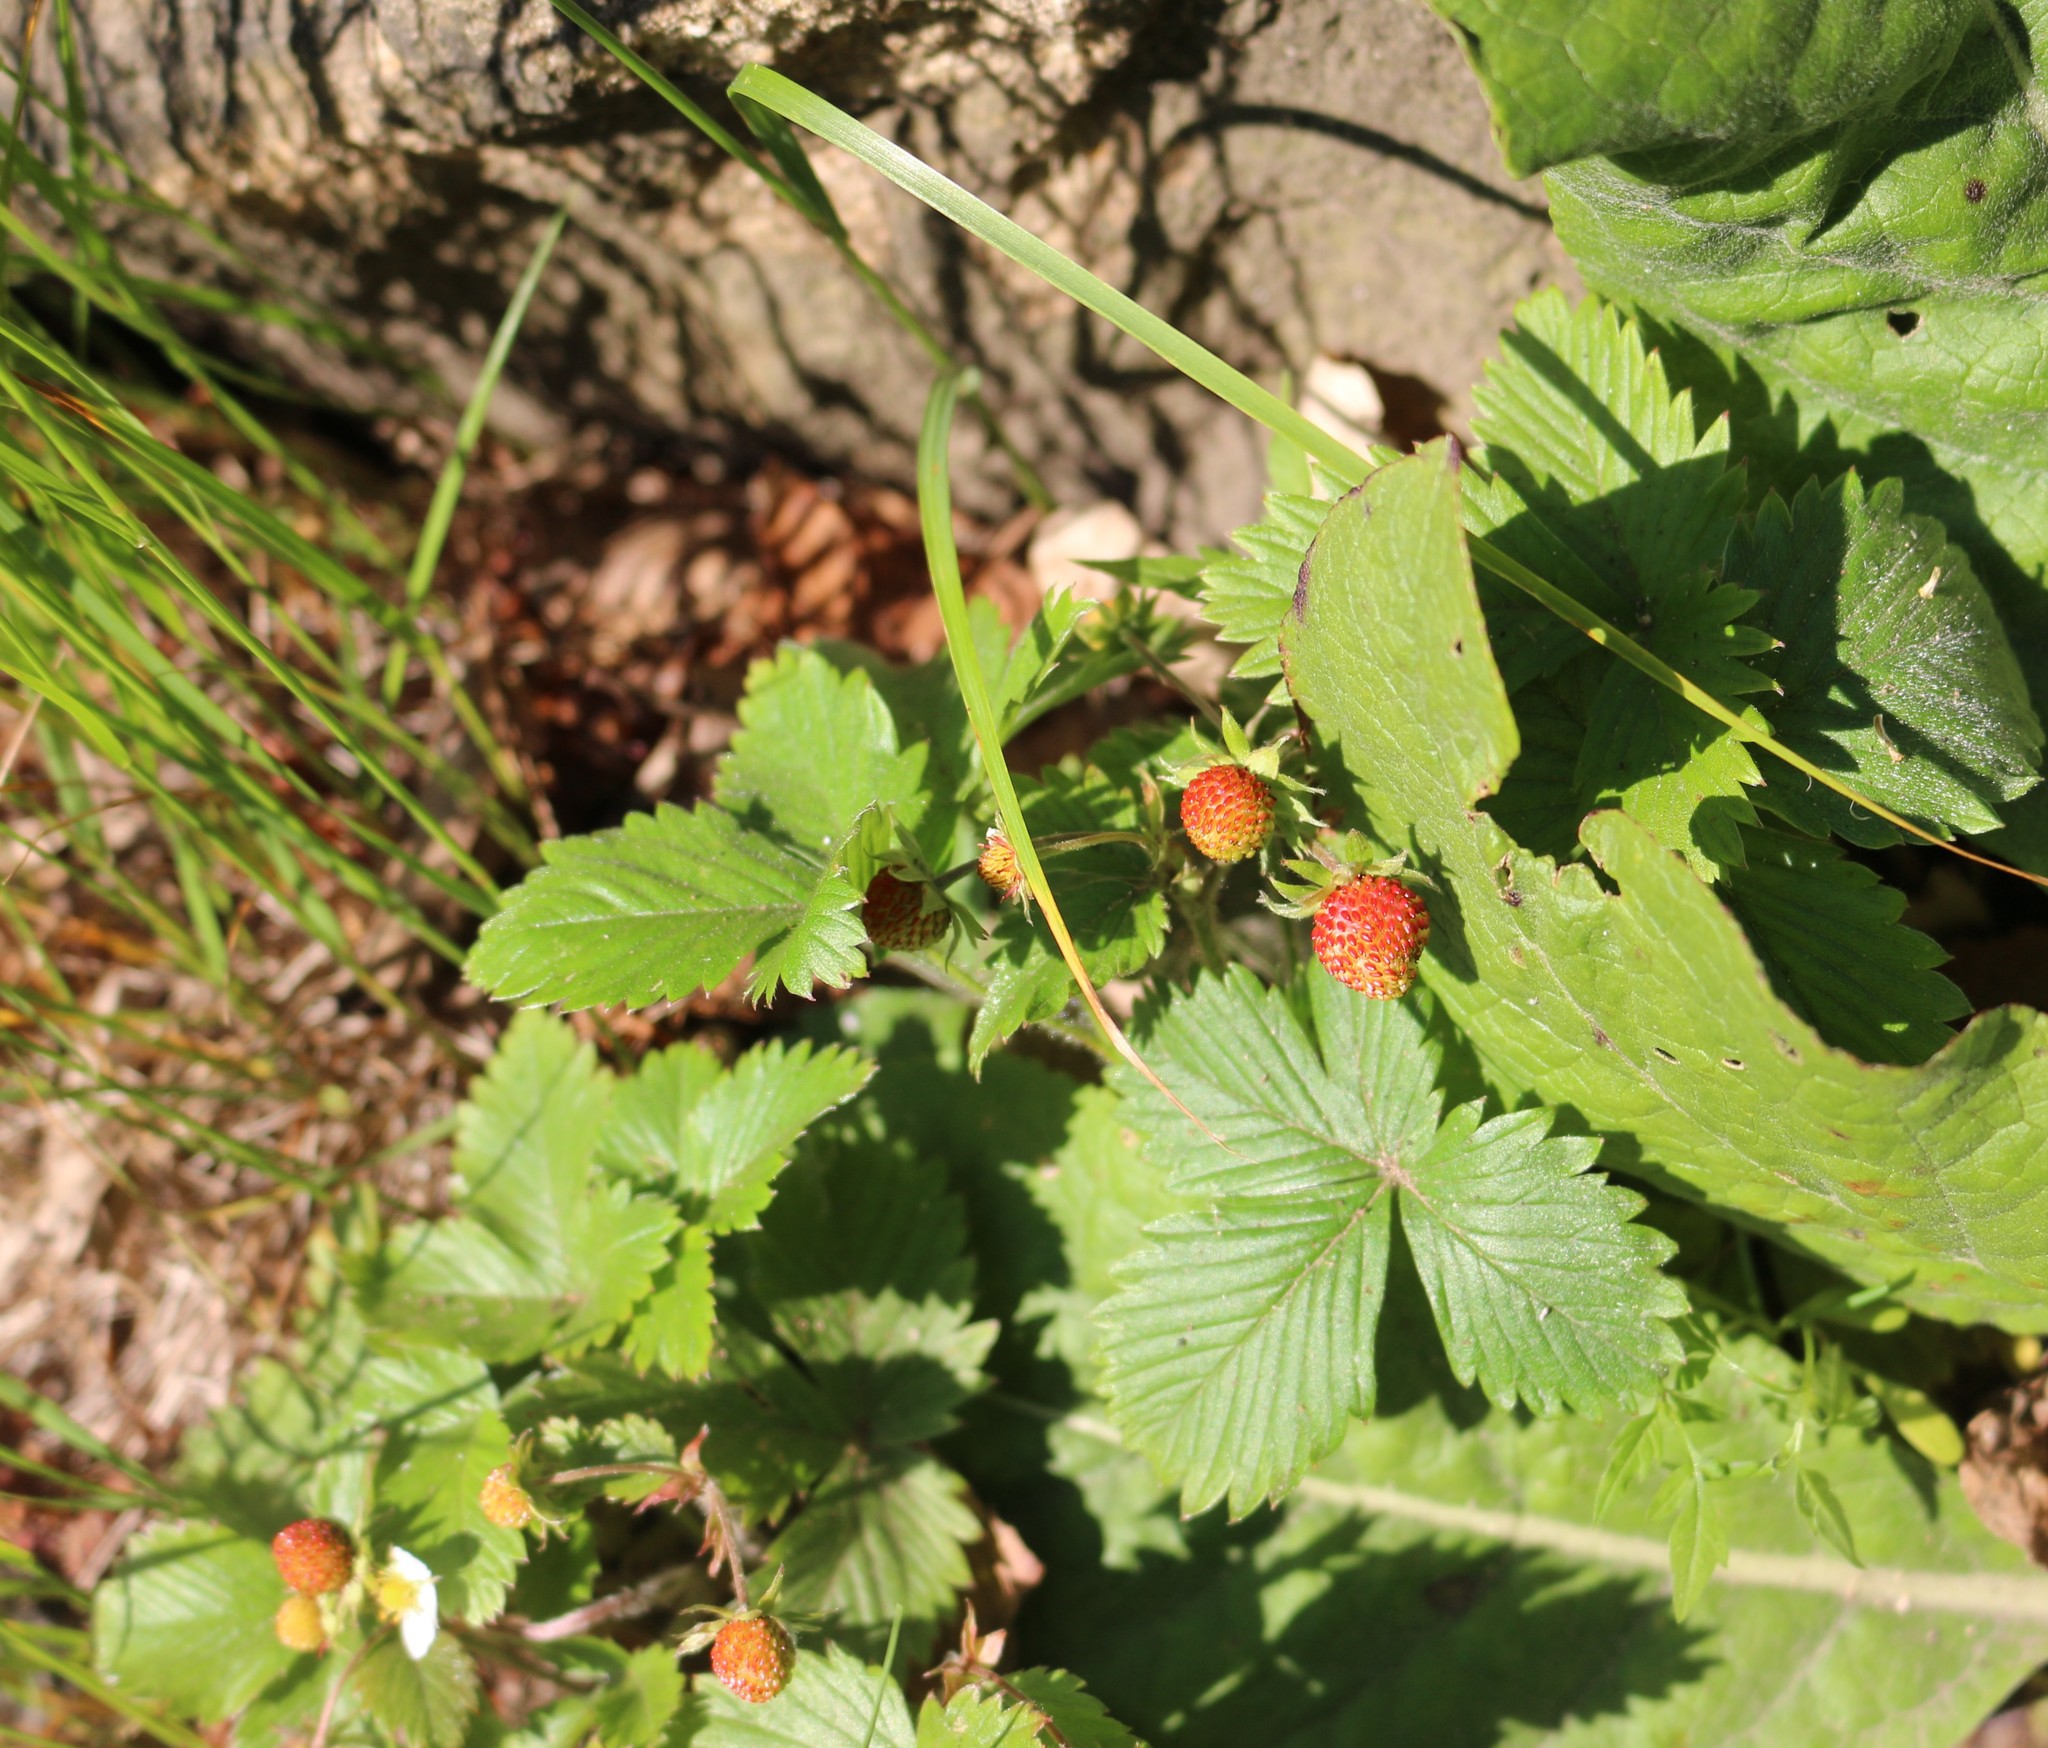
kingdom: Plantae
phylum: Tracheophyta
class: Magnoliopsida
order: Rosales
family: Rosaceae
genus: Fragaria
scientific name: Fragaria vesca
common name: Wild strawberry
